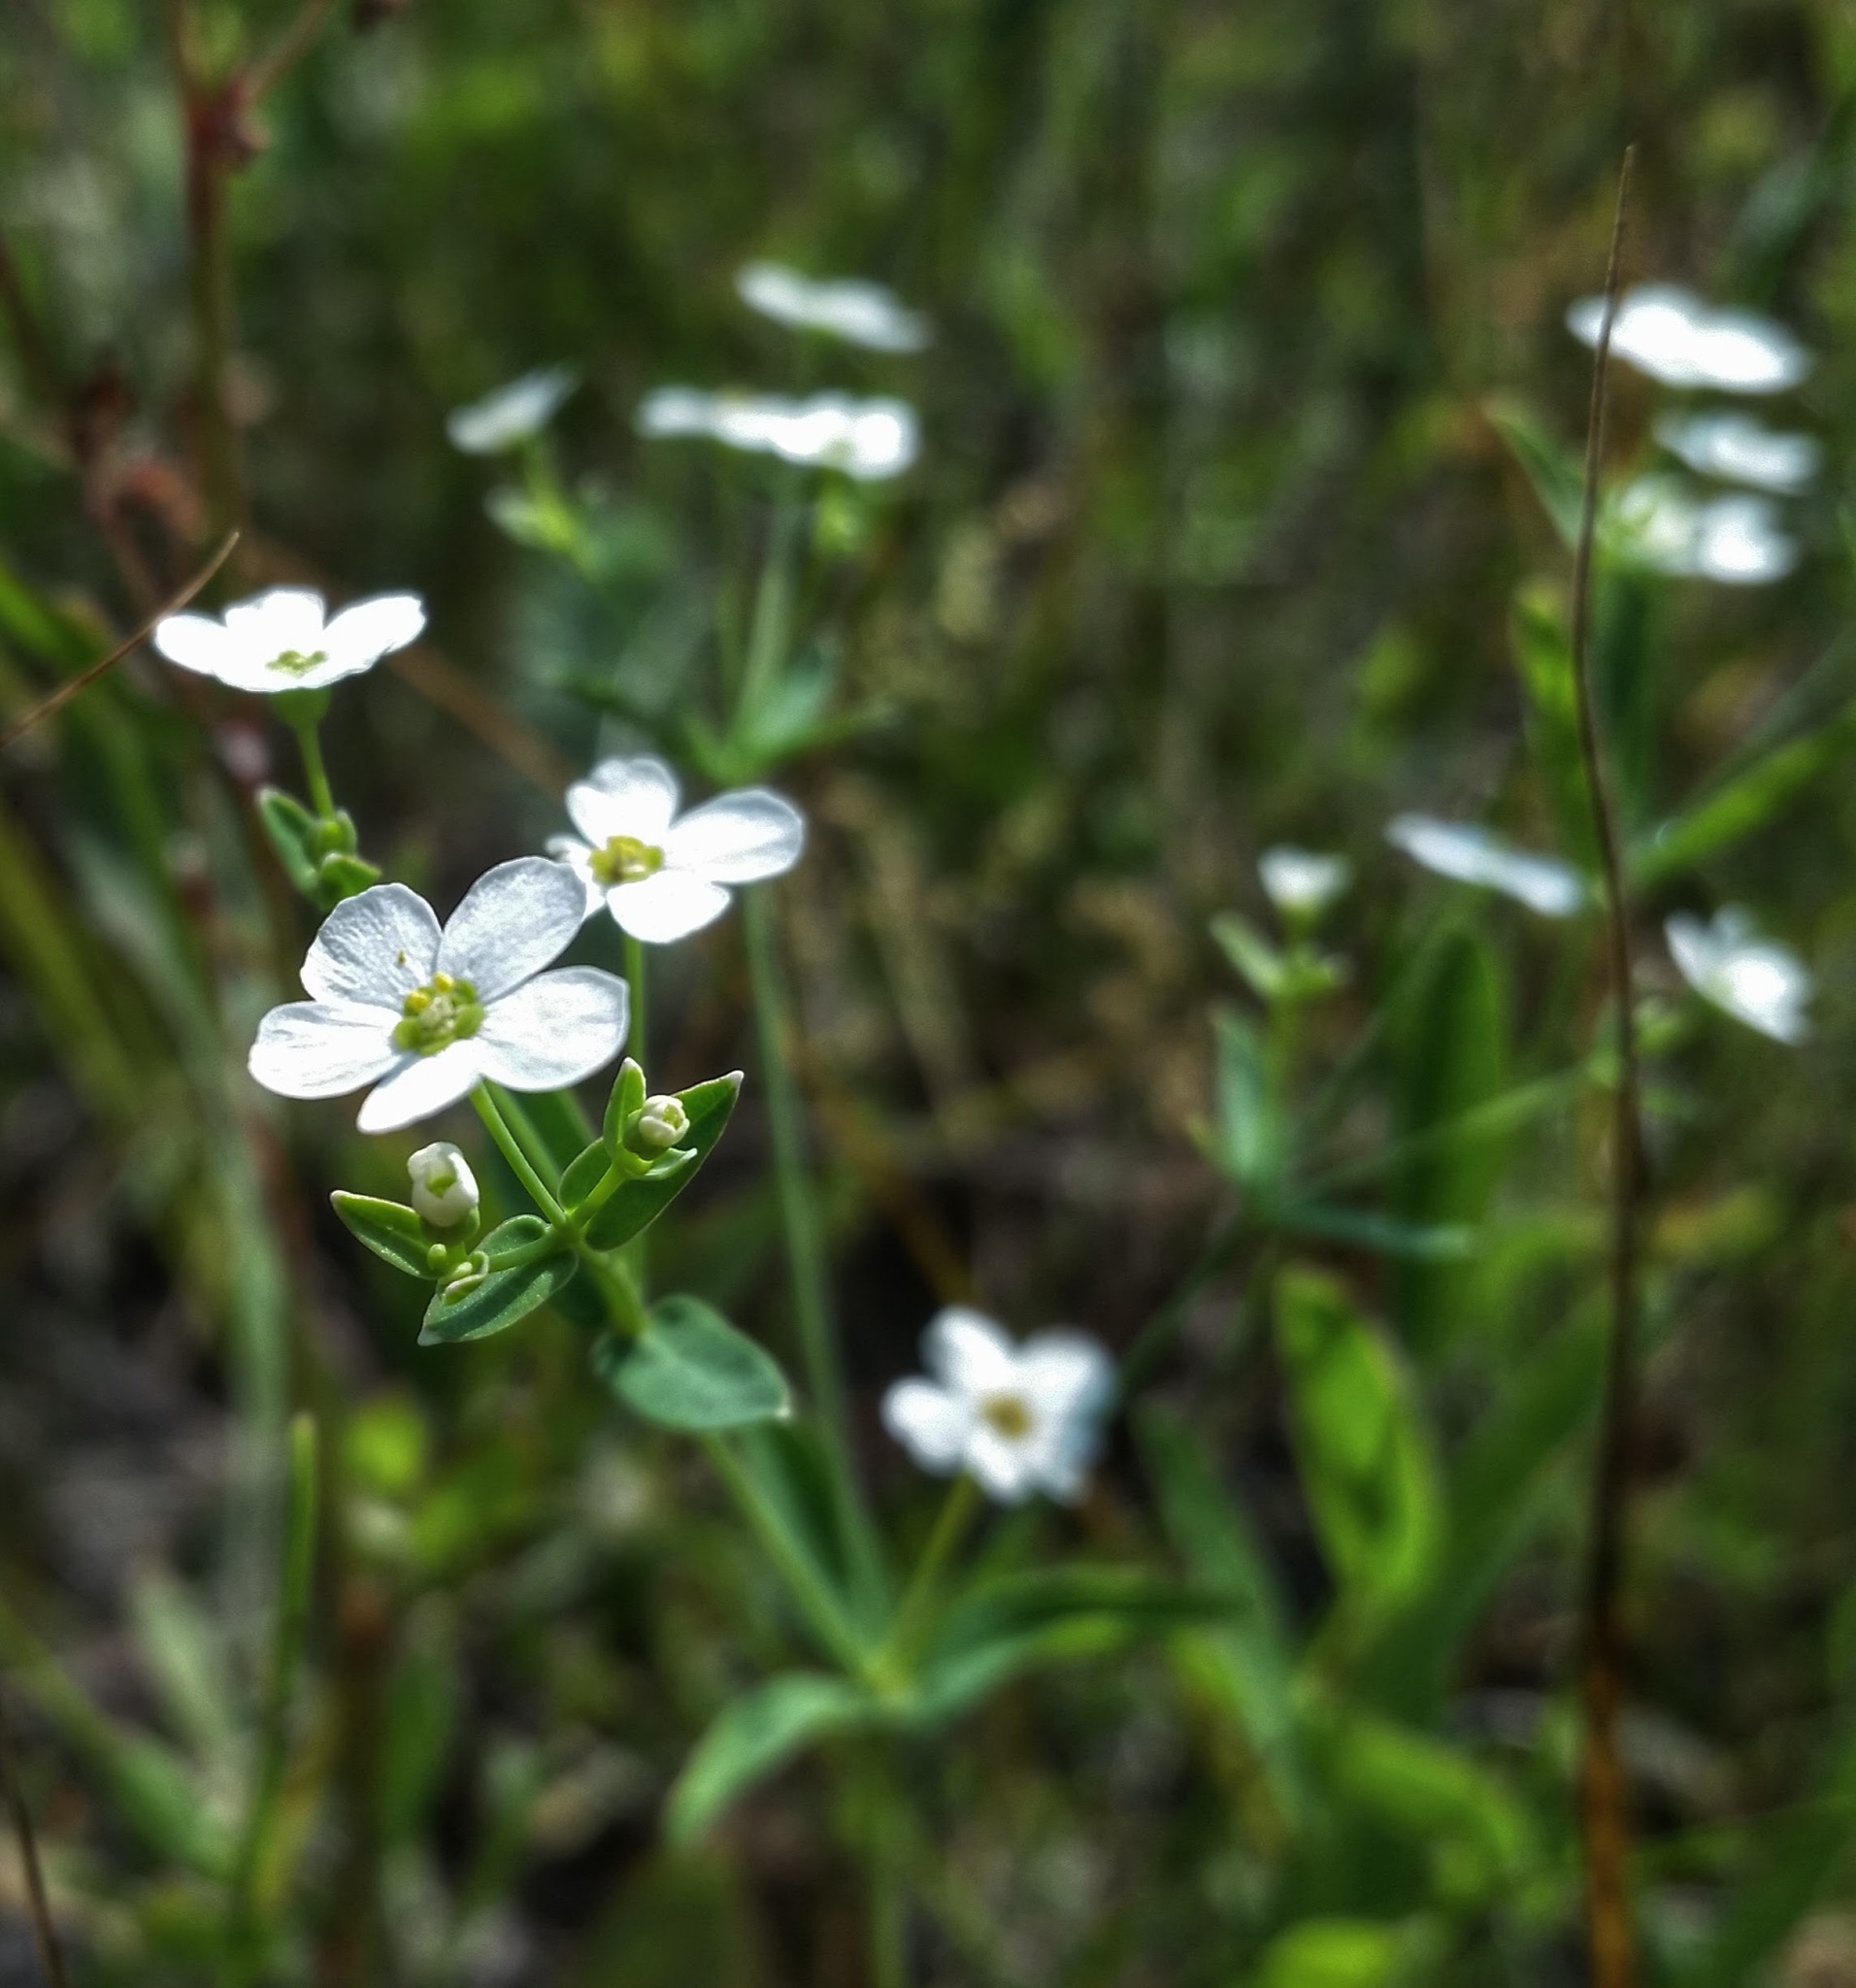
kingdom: Plantae
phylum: Tracheophyta
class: Magnoliopsida
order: Malpighiales
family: Euphorbiaceae
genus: Euphorbia
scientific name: Euphorbia corollata
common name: Flowering spurge
